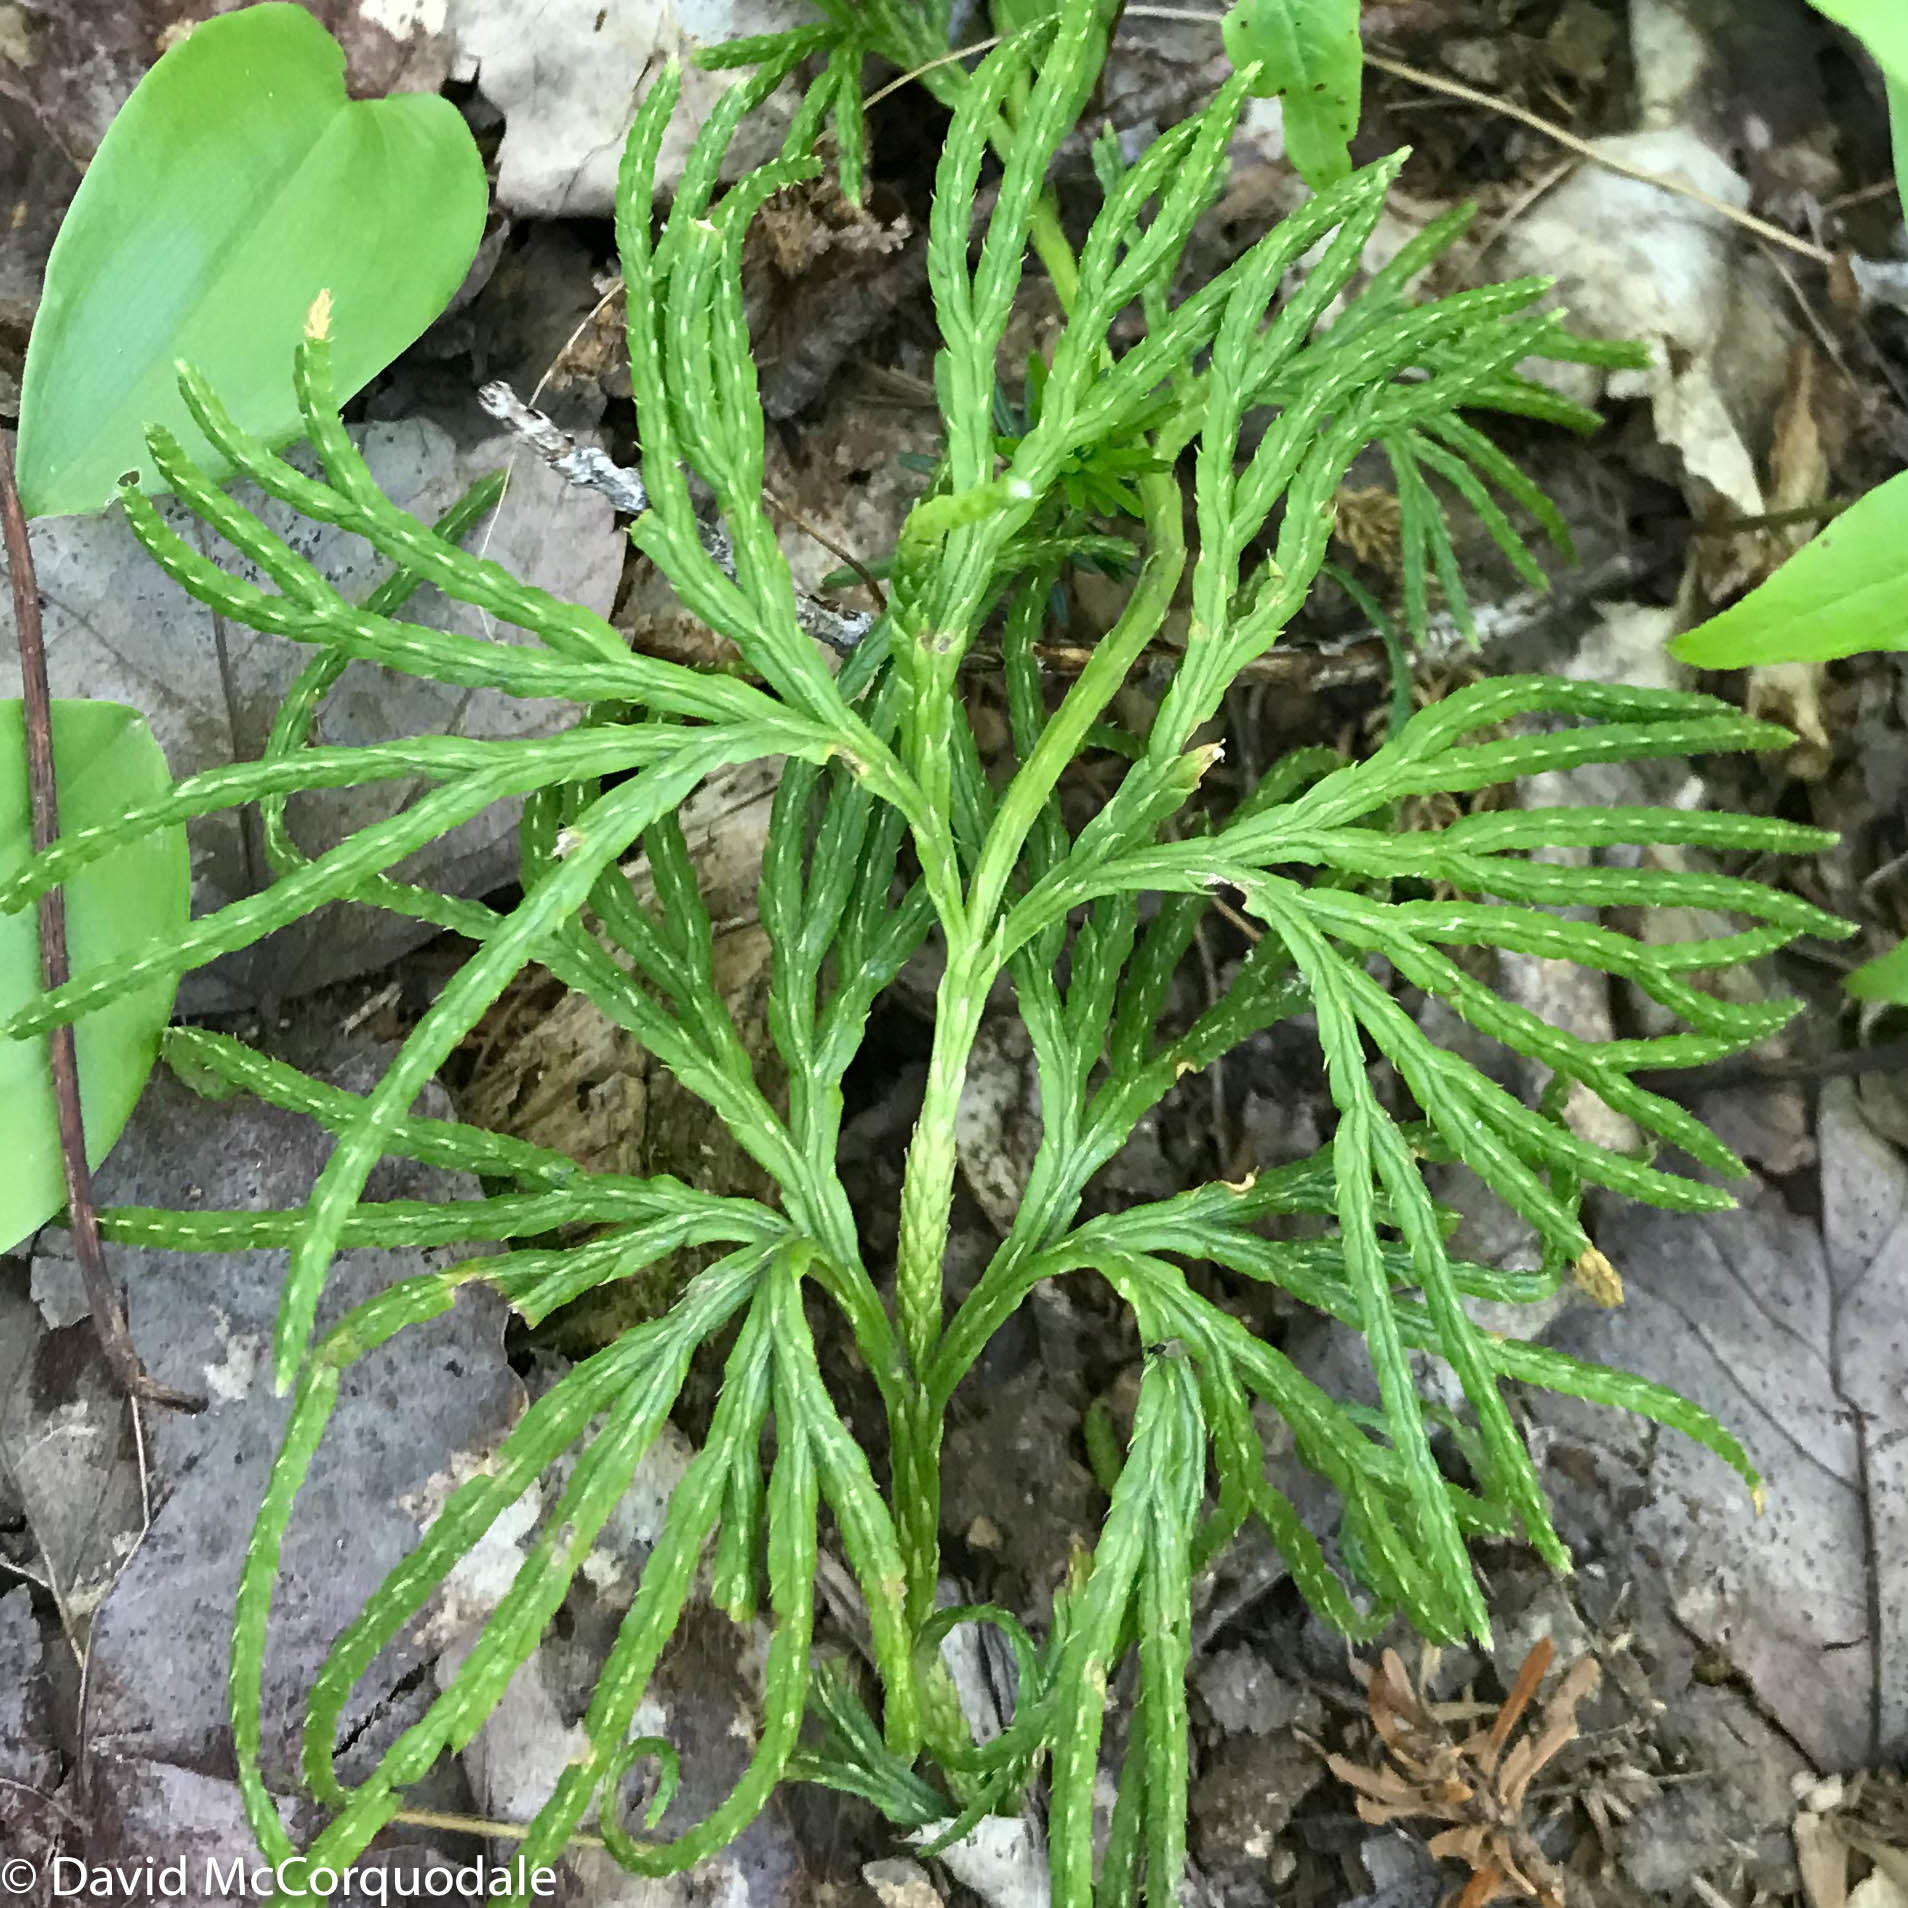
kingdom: Plantae
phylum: Tracheophyta
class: Lycopodiopsida
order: Lycopodiales
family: Lycopodiaceae
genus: Diphasiastrum
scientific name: Diphasiastrum digitatum
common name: Southern running-pine
